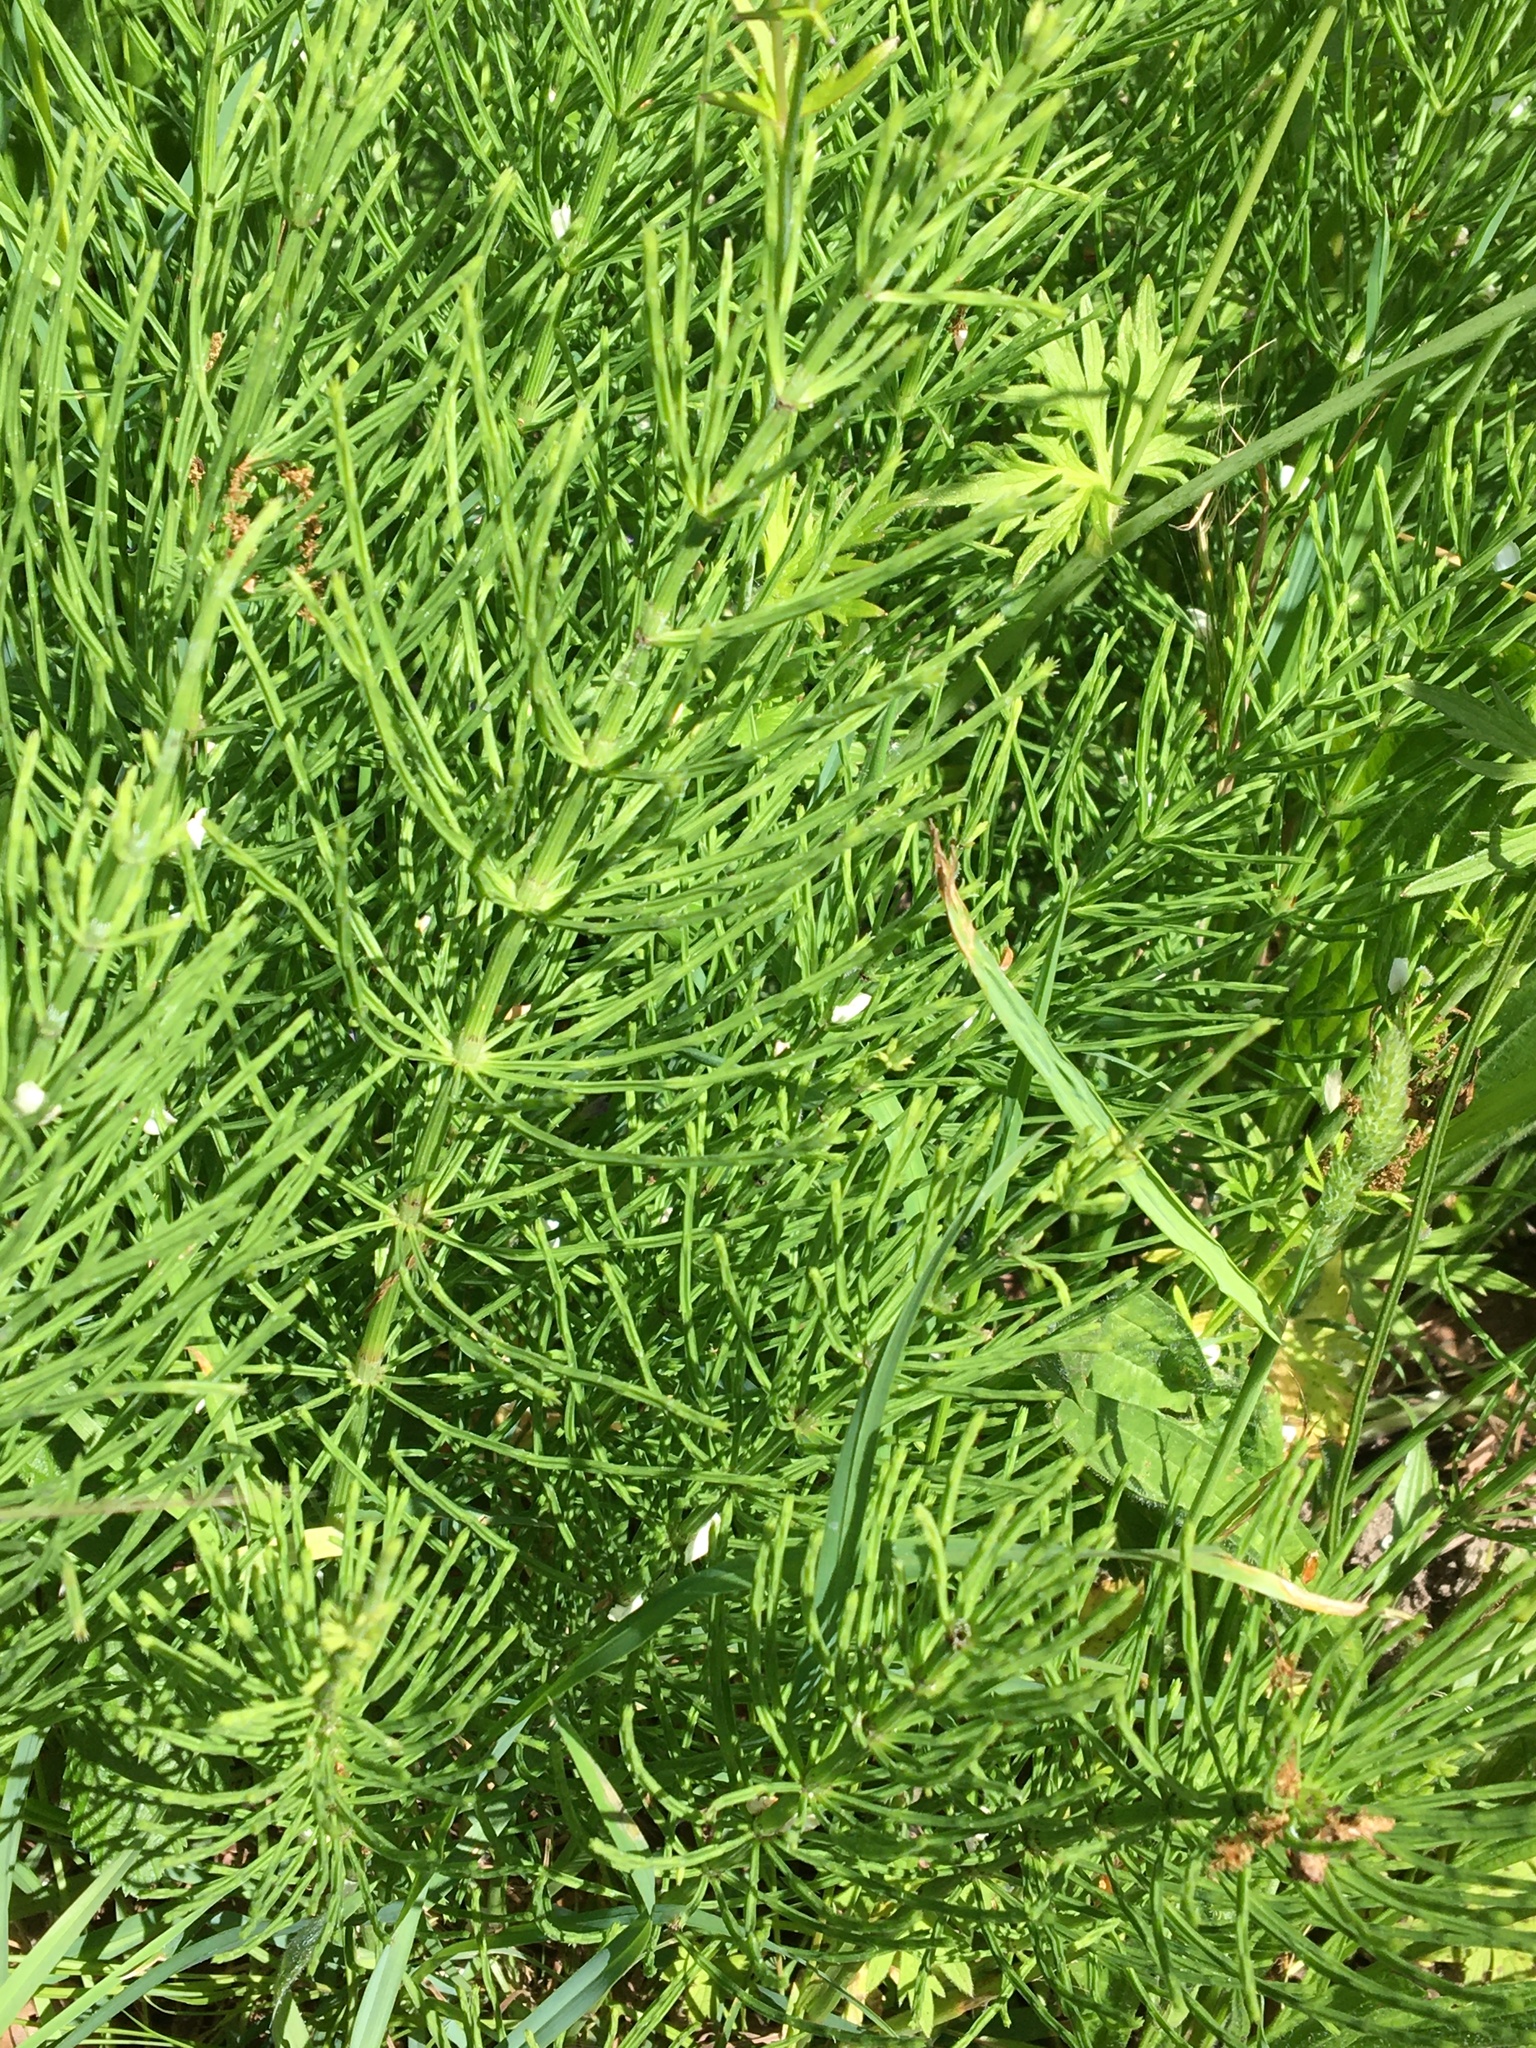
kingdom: Plantae
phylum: Tracheophyta
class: Polypodiopsida
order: Equisetales
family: Equisetaceae
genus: Equisetum
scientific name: Equisetum arvense
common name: Field horsetail
